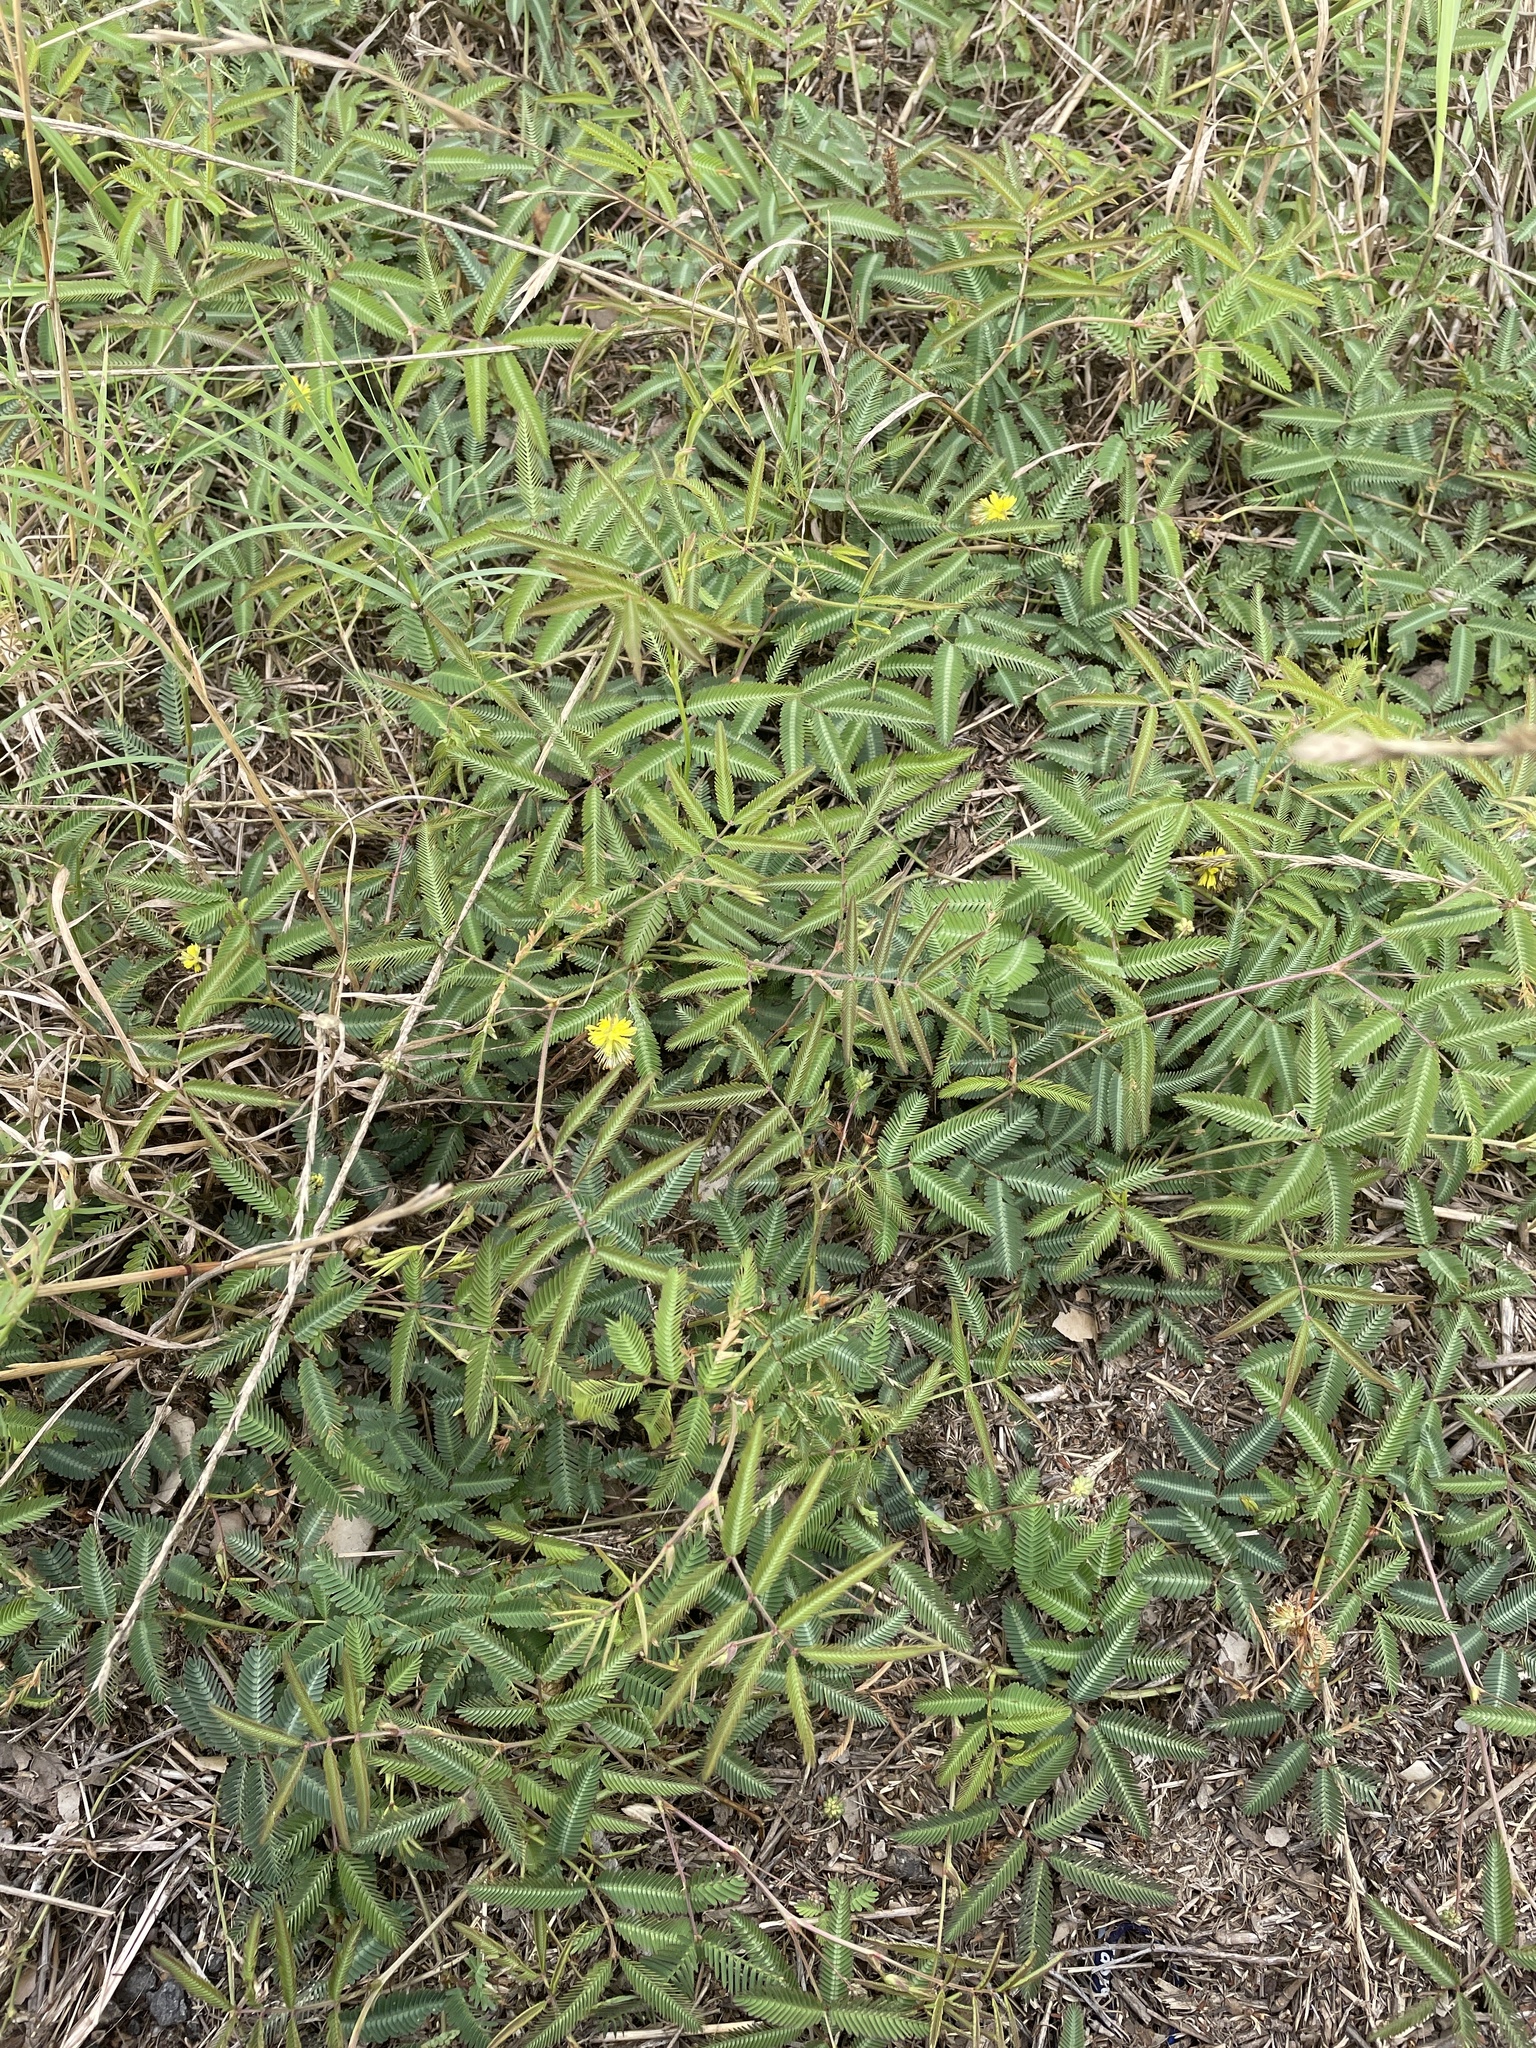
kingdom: Plantae
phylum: Tracheophyta
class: Magnoliopsida
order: Fabales
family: Fabaceae
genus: Neptunia
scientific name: Neptunia pubescens
